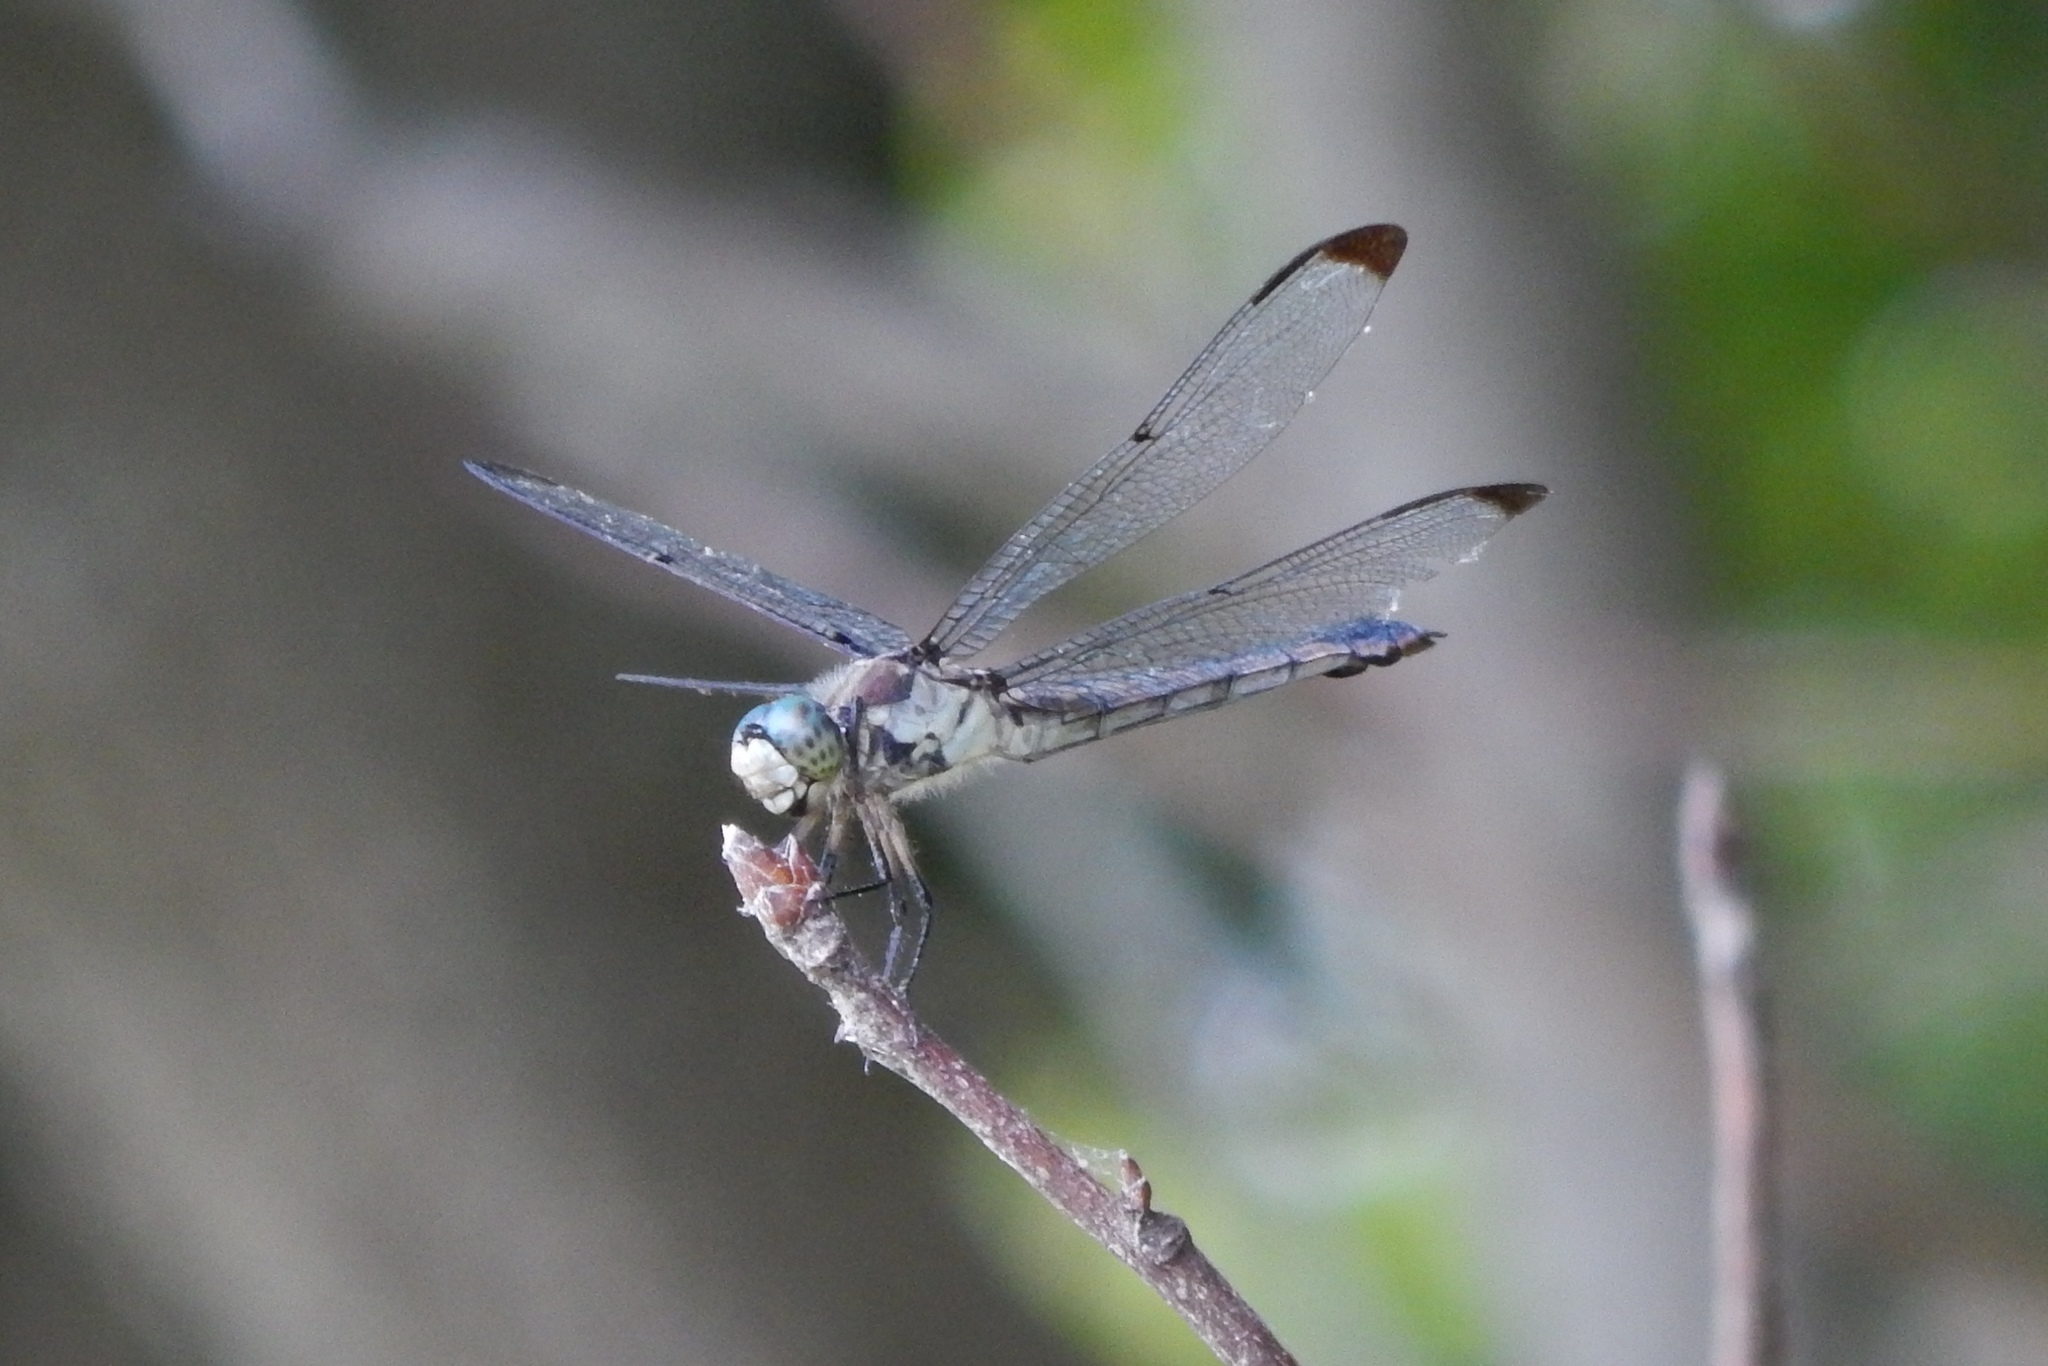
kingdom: Animalia
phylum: Arthropoda
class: Insecta
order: Odonata
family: Libellulidae
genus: Libellula
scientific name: Libellula vibrans
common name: Great blue skimmer
